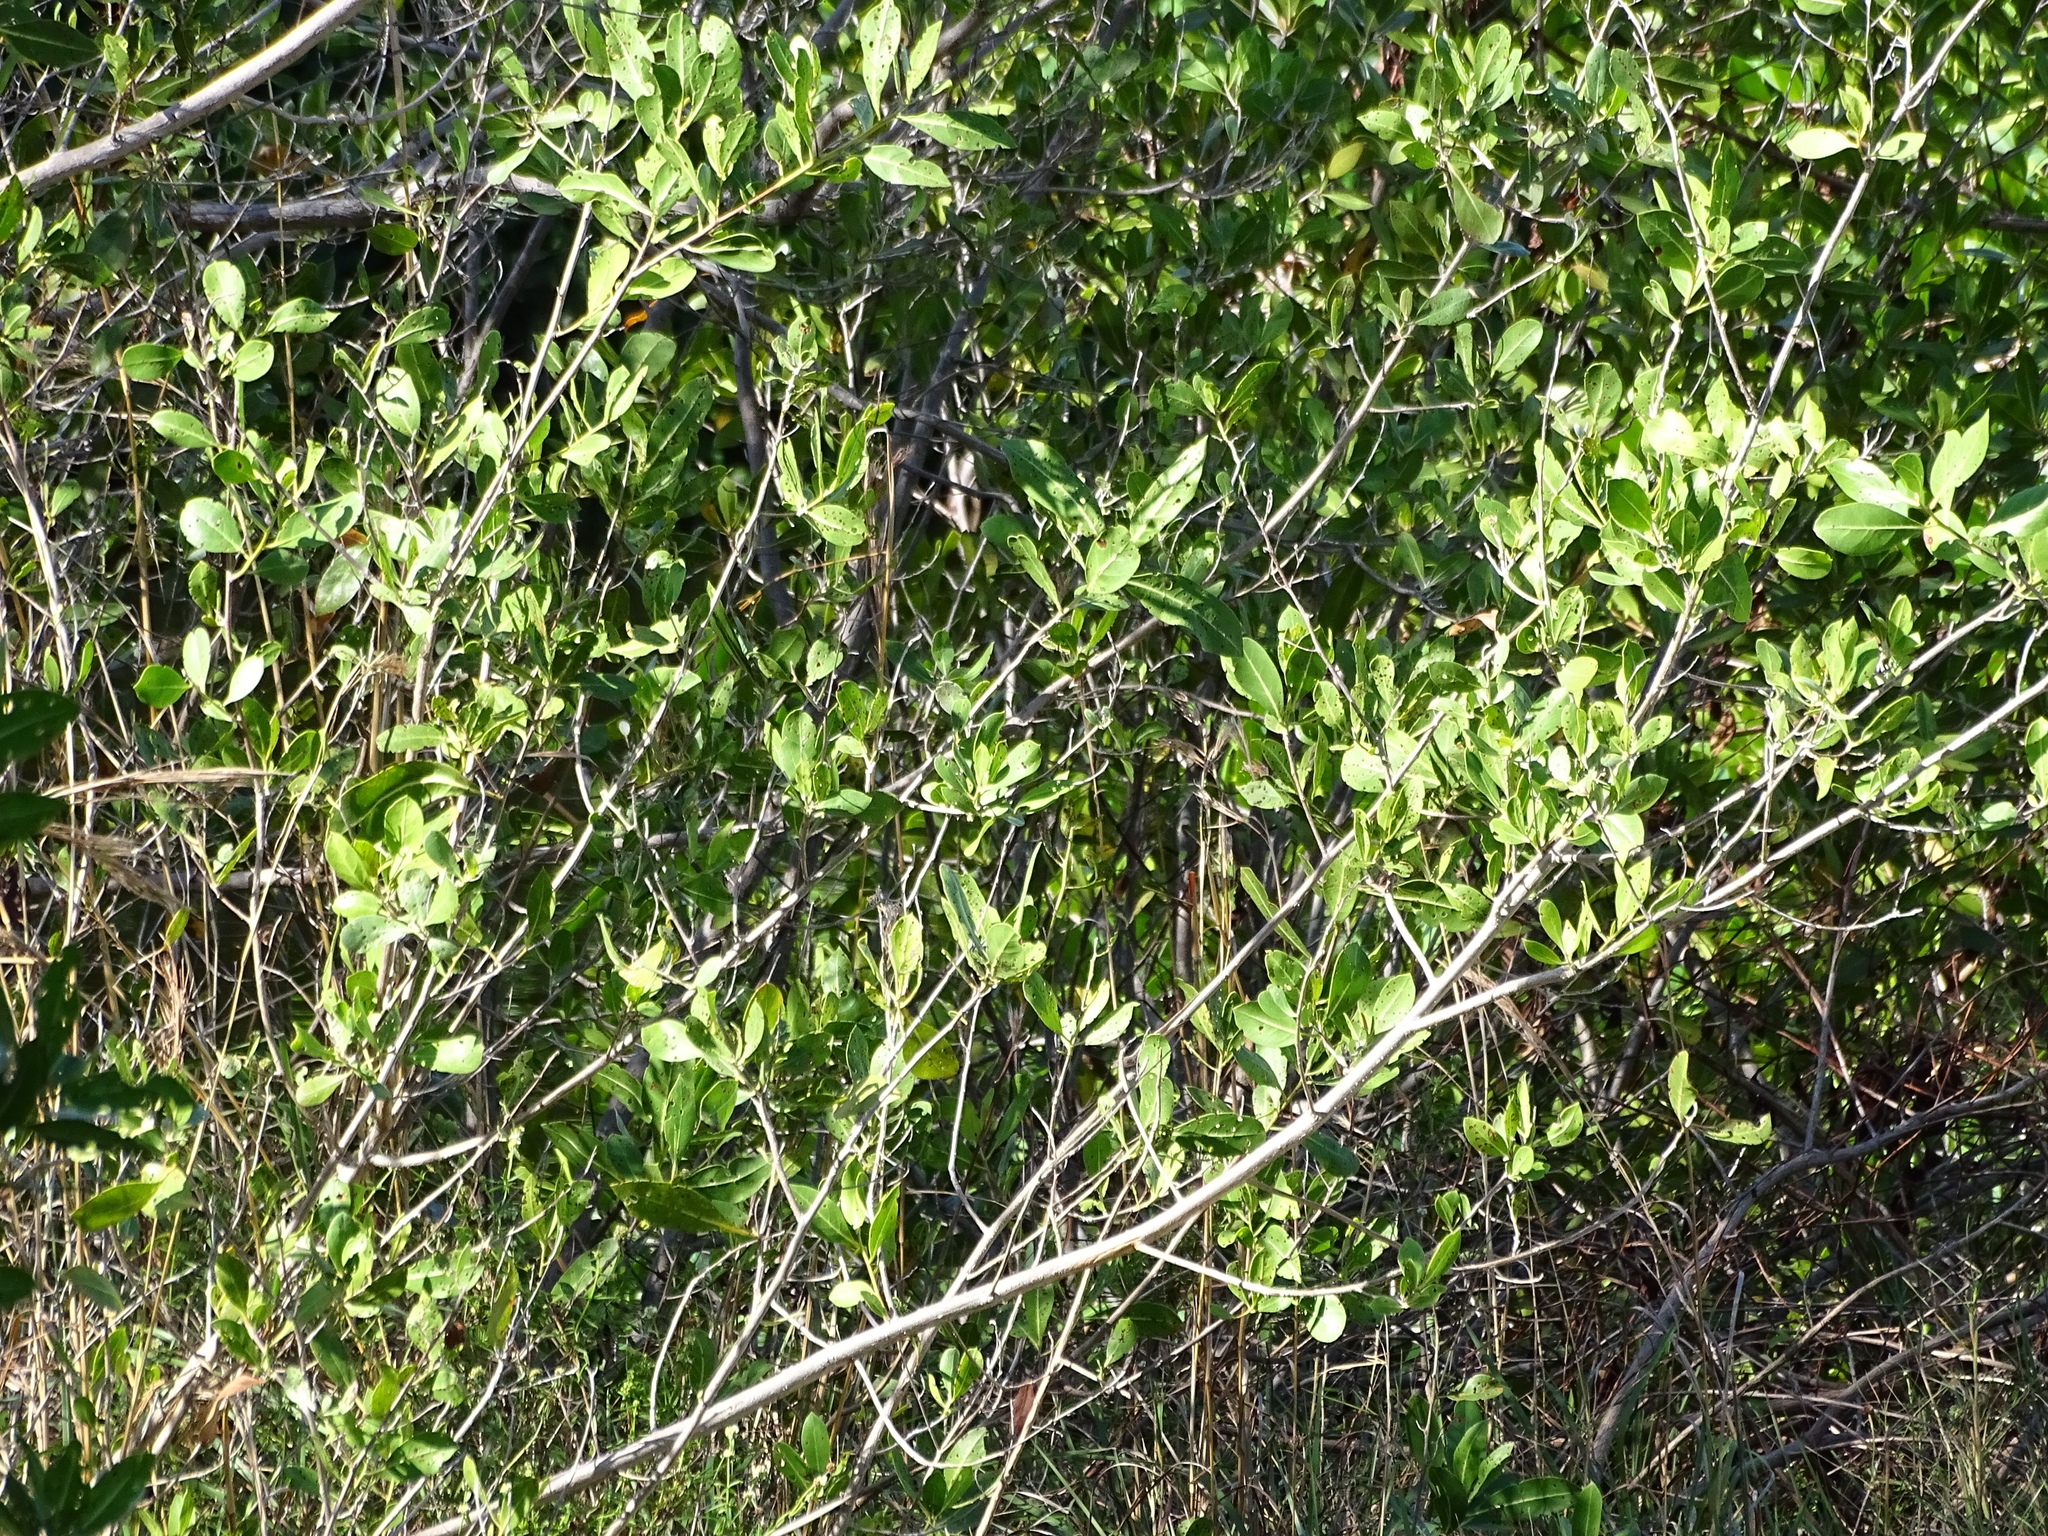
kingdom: Plantae
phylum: Tracheophyta
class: Magnoliopsida
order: Lamiales
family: Acanthaceae
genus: Avicennia
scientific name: Avicennia germinans
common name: Black mangrove
